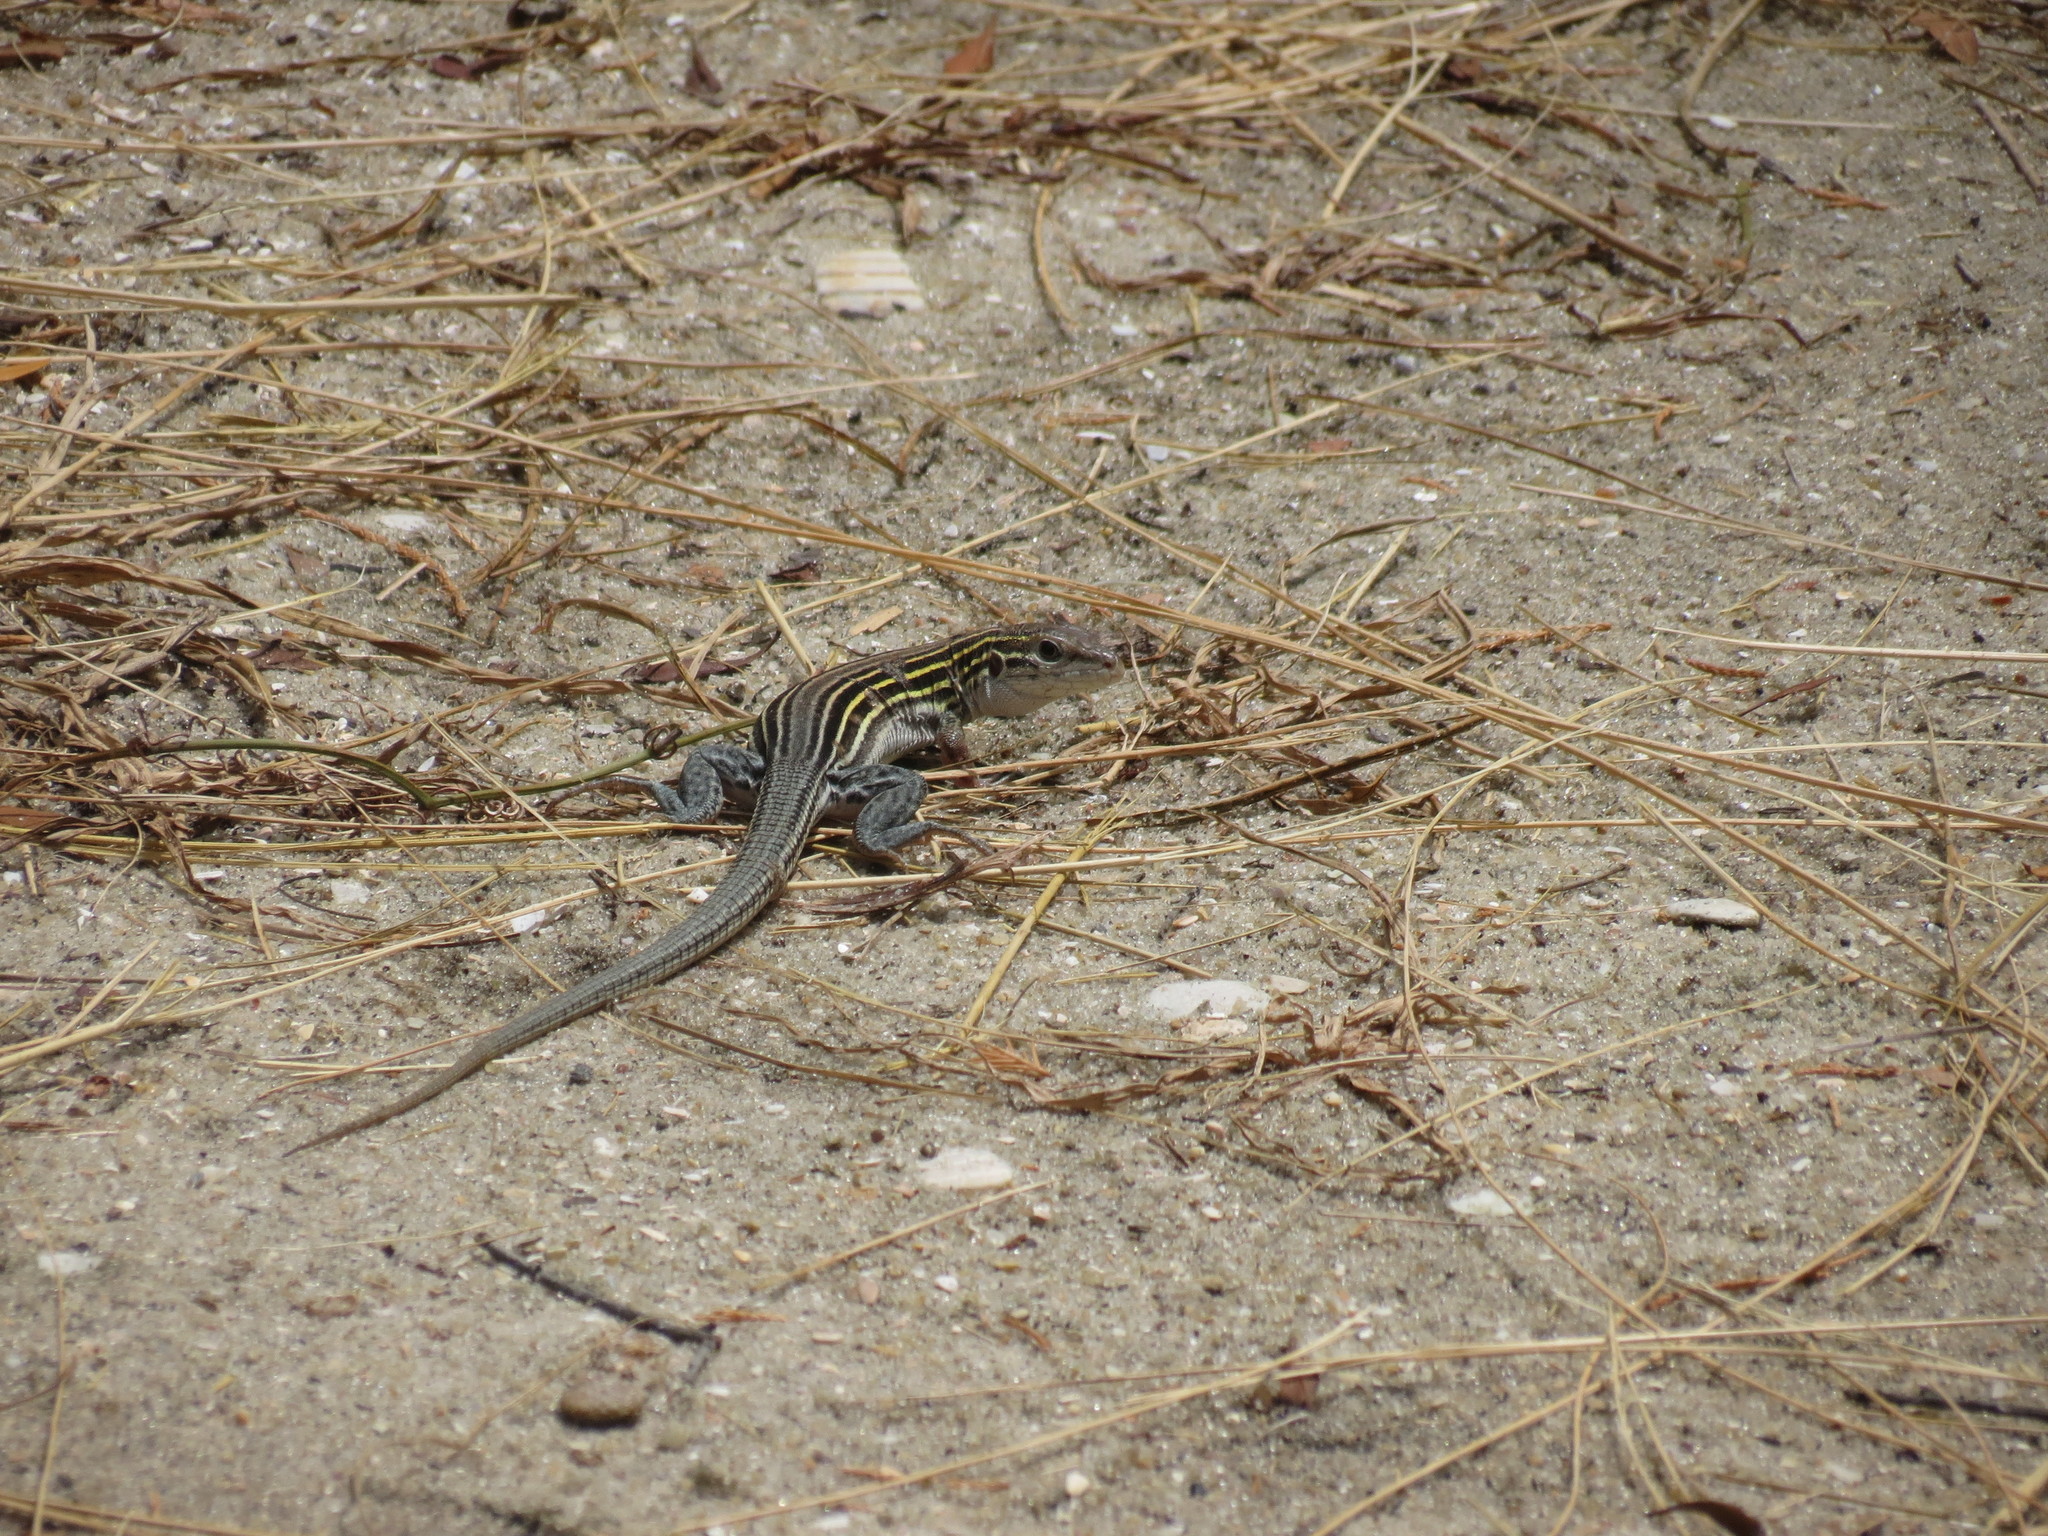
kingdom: Animalia
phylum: Chordata
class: Squamata
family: Teiidae
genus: Aspidoscelis
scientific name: Aspidoscelis sexlineatus
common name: Six-lined racerunner
